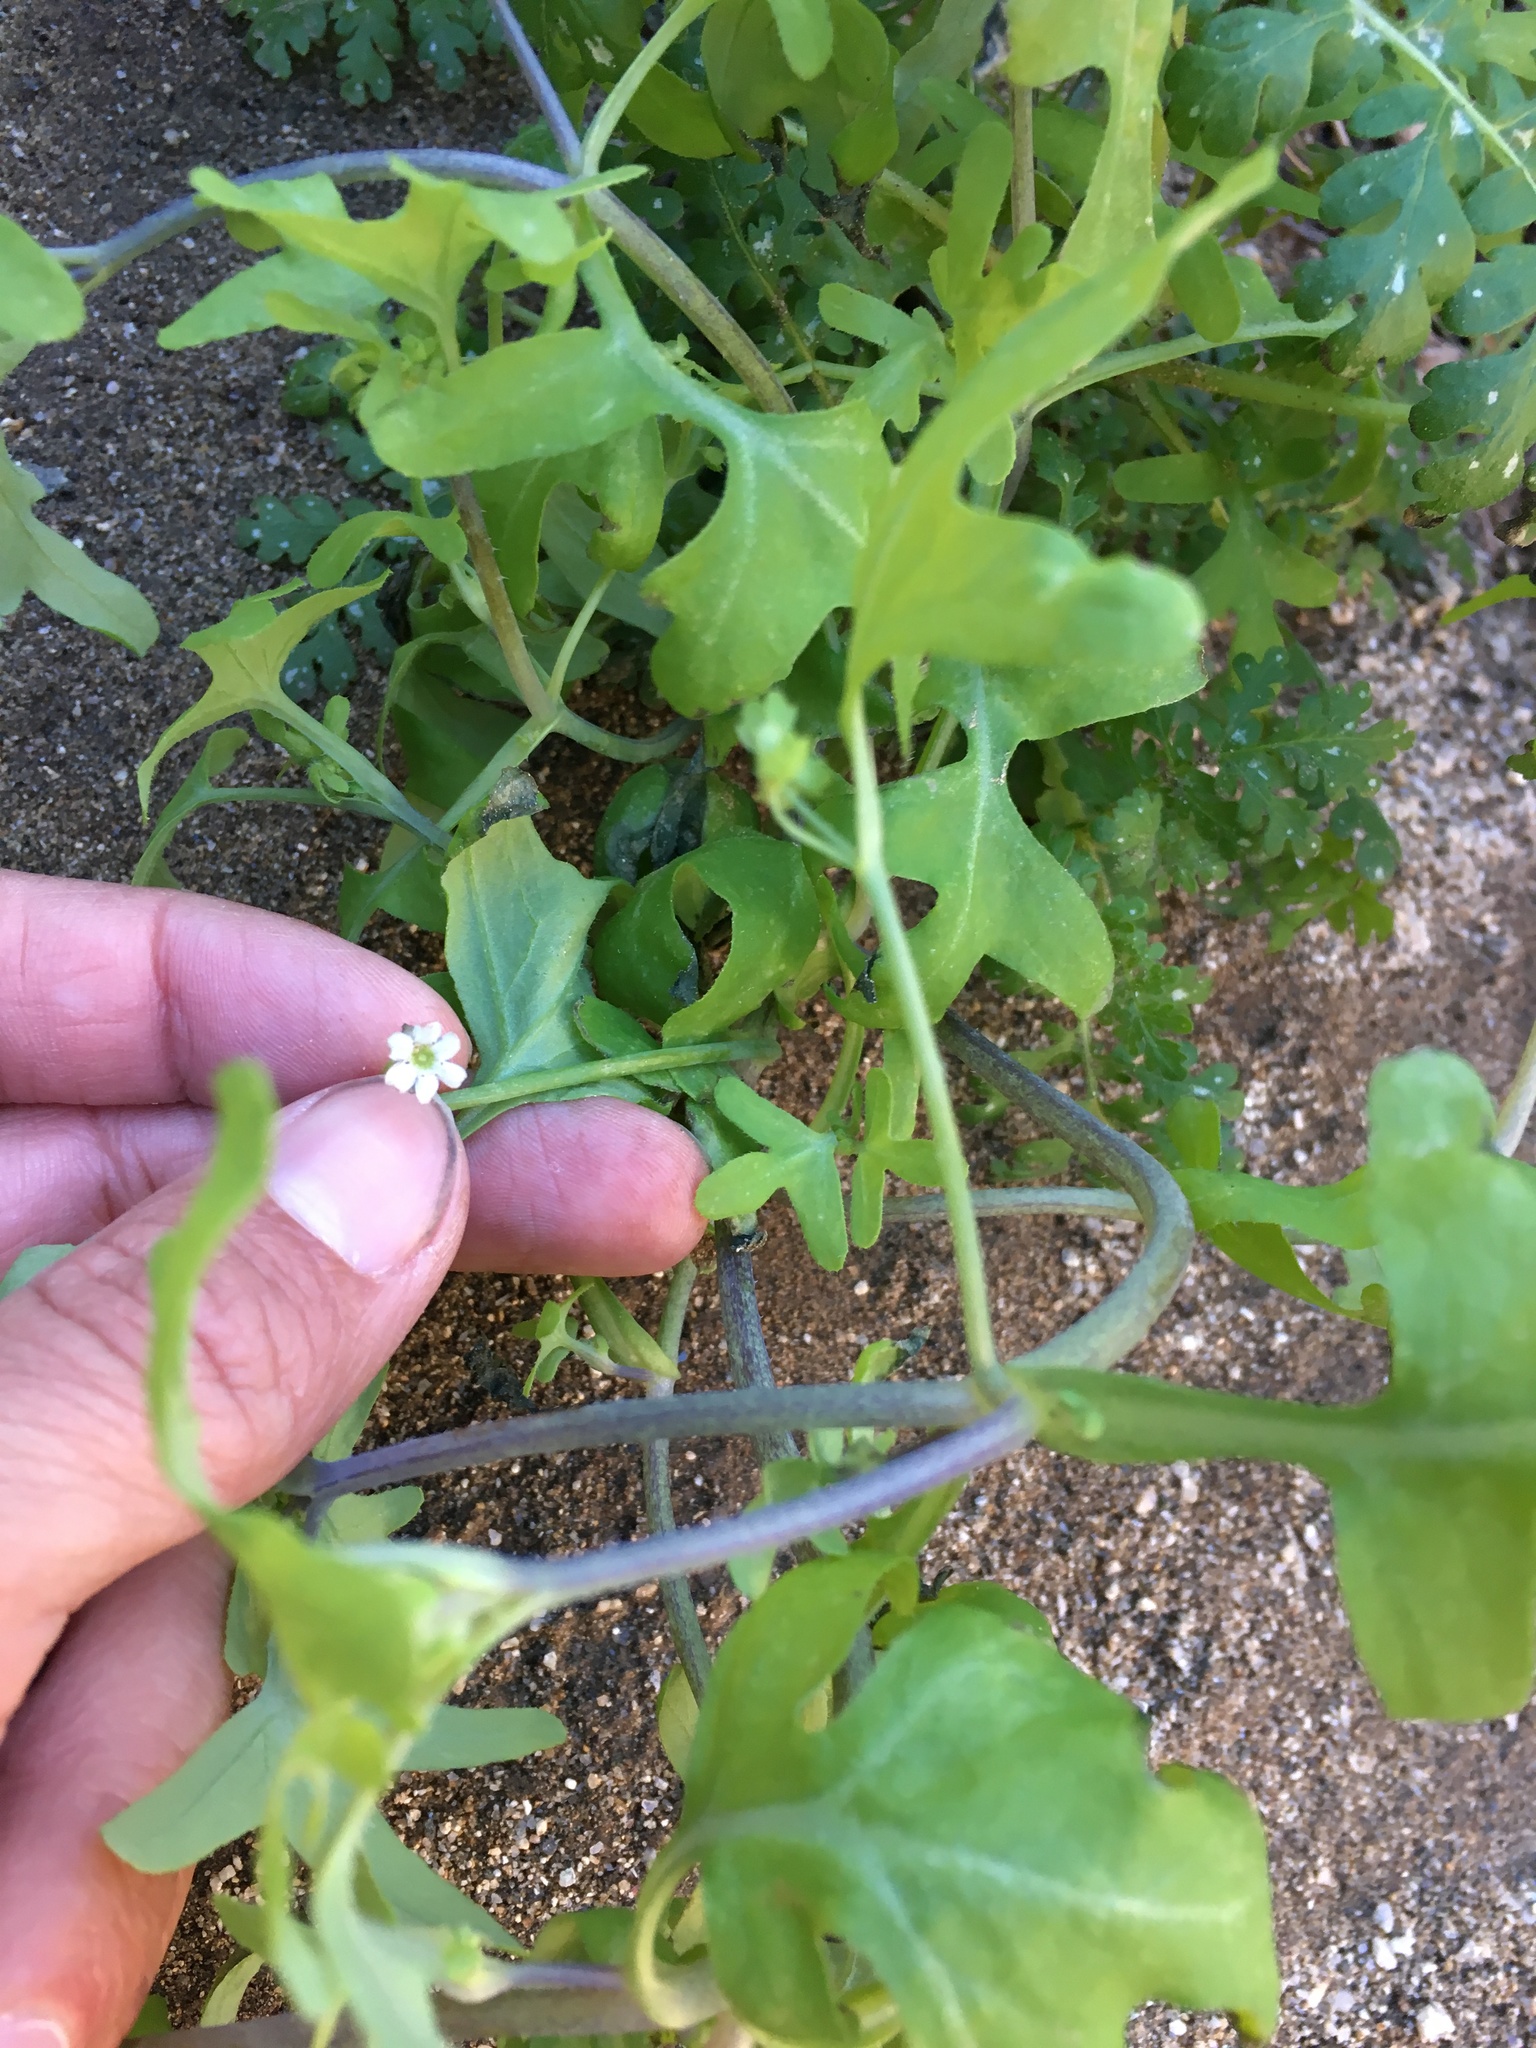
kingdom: Plantae
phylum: Tracheophyta
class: Magnoliopsida
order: Cucurbitales
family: Cucurbitaceae
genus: Echinopepon
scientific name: Echinopepon bigelovii
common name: Desert starvine
